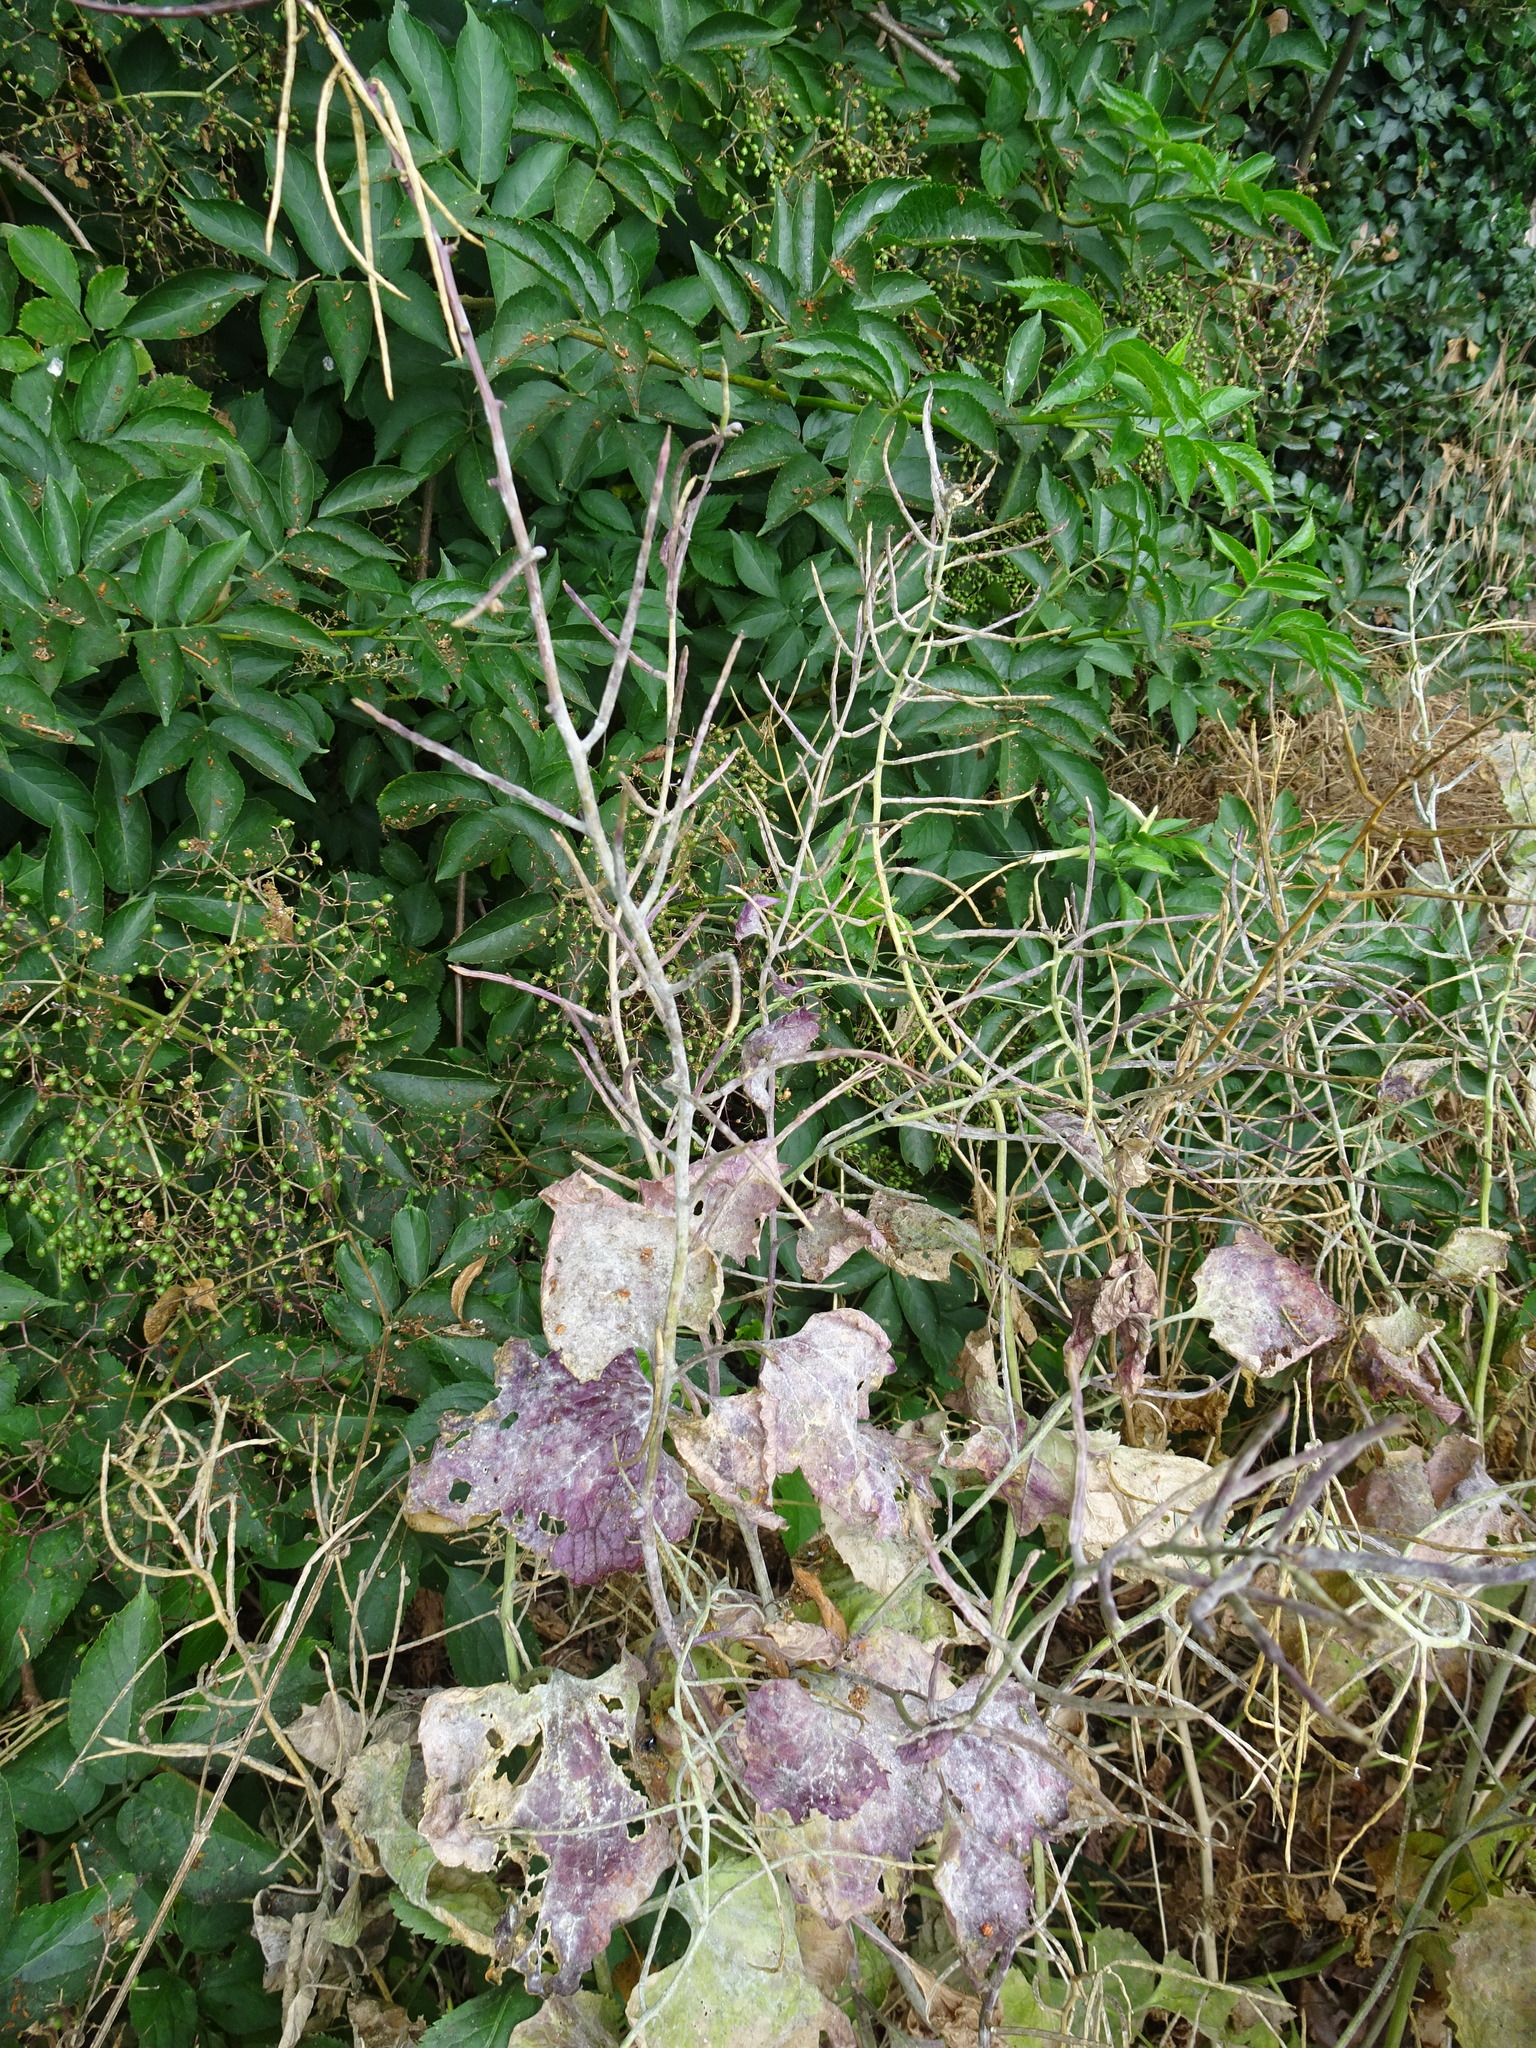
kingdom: Plantae
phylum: Tracheophyta
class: Magnoliopsida
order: Brassicales
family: Brassicaceae
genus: Alliaria
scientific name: Alliaria petiolata
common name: Garlic mustard
